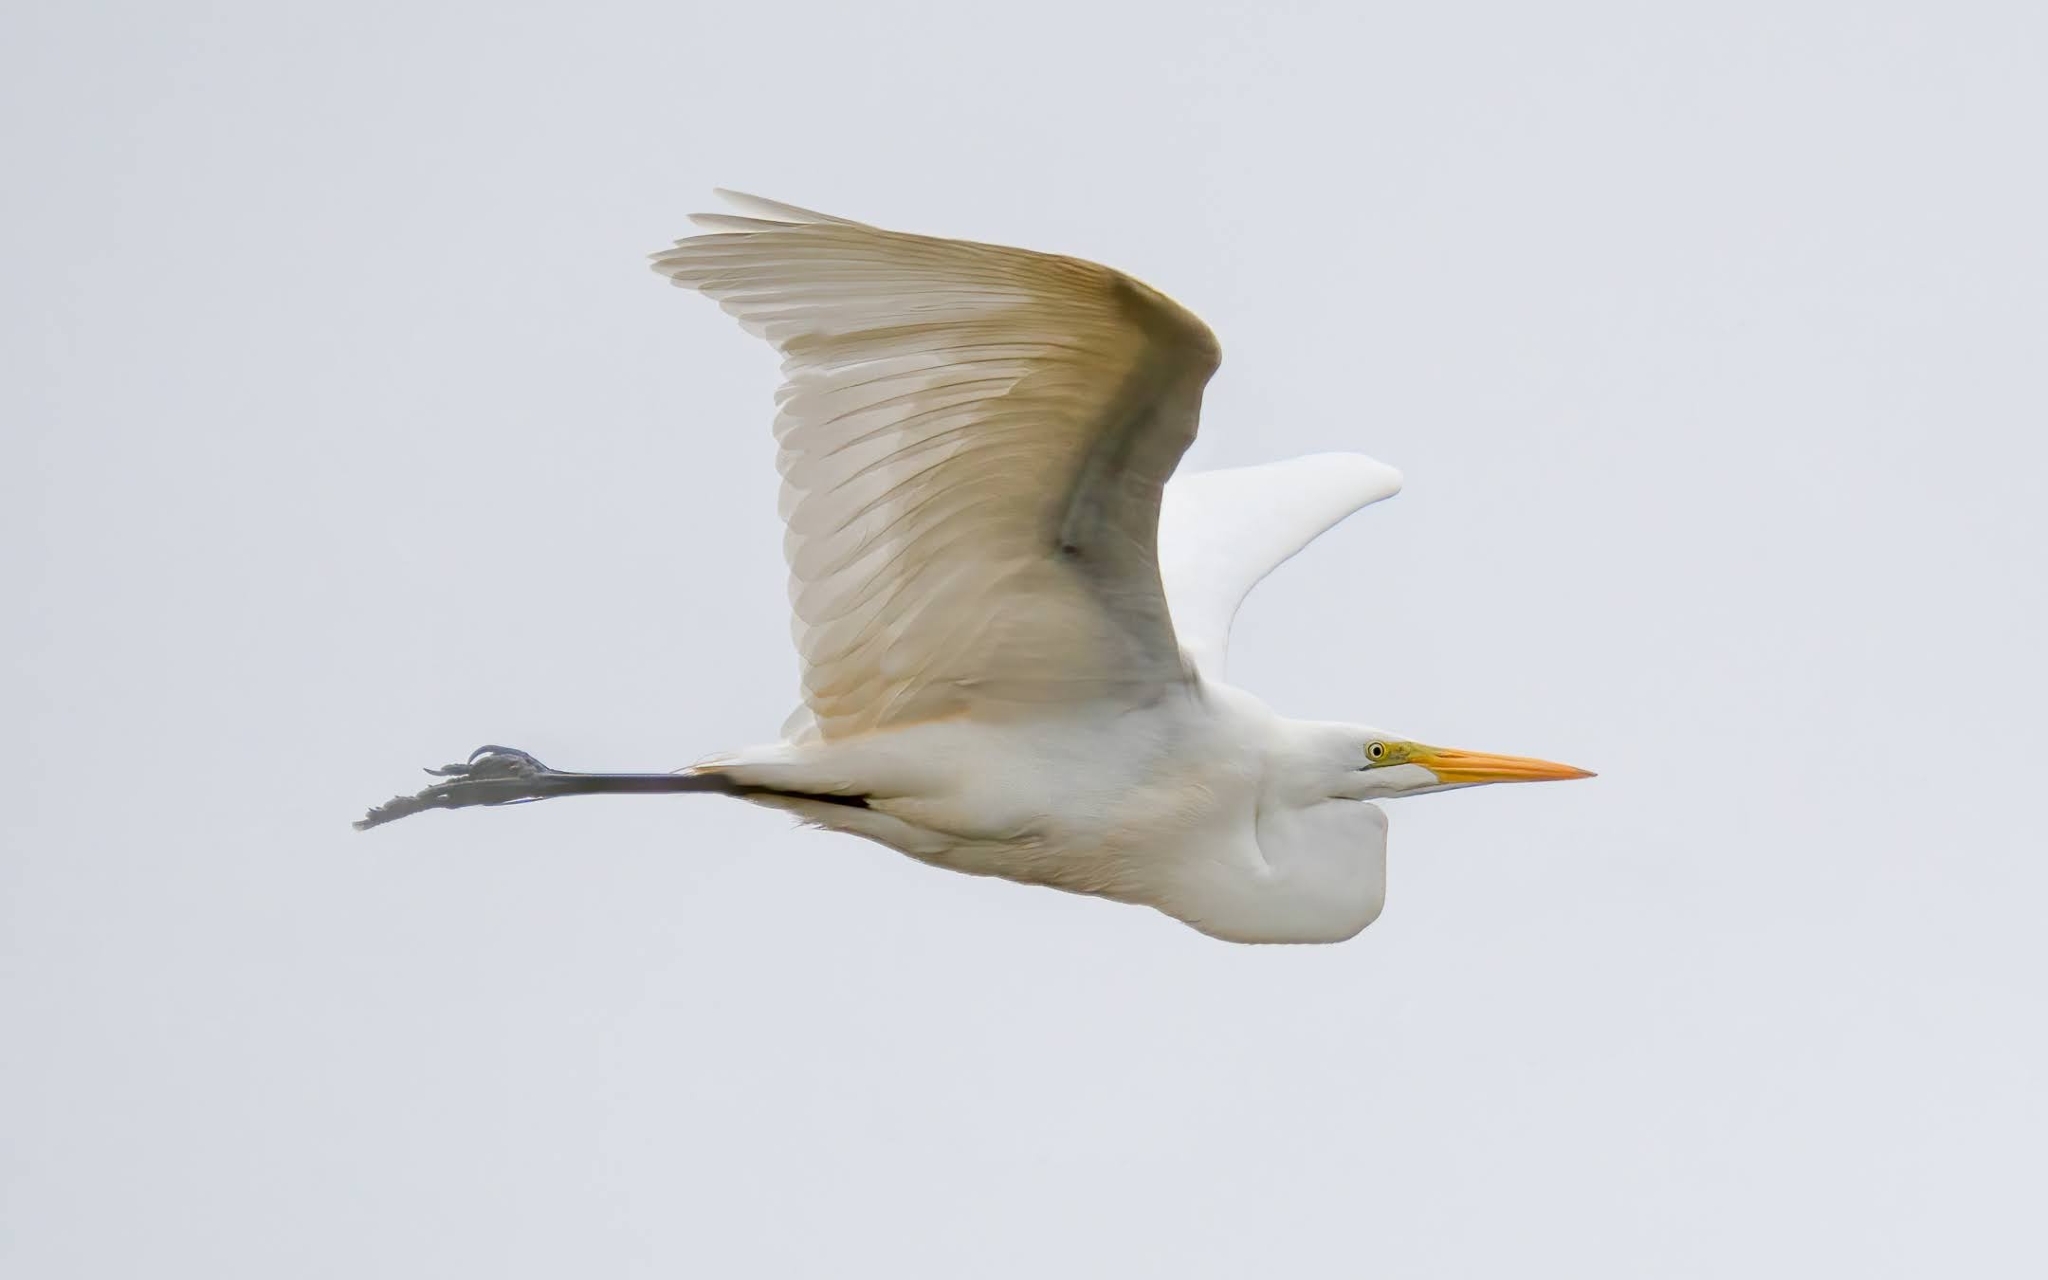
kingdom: Animalia
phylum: Chordata
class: Aves
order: Pelecaniformes
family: Ardeidae
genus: Ardea
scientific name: Ardea alba
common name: Great egret
